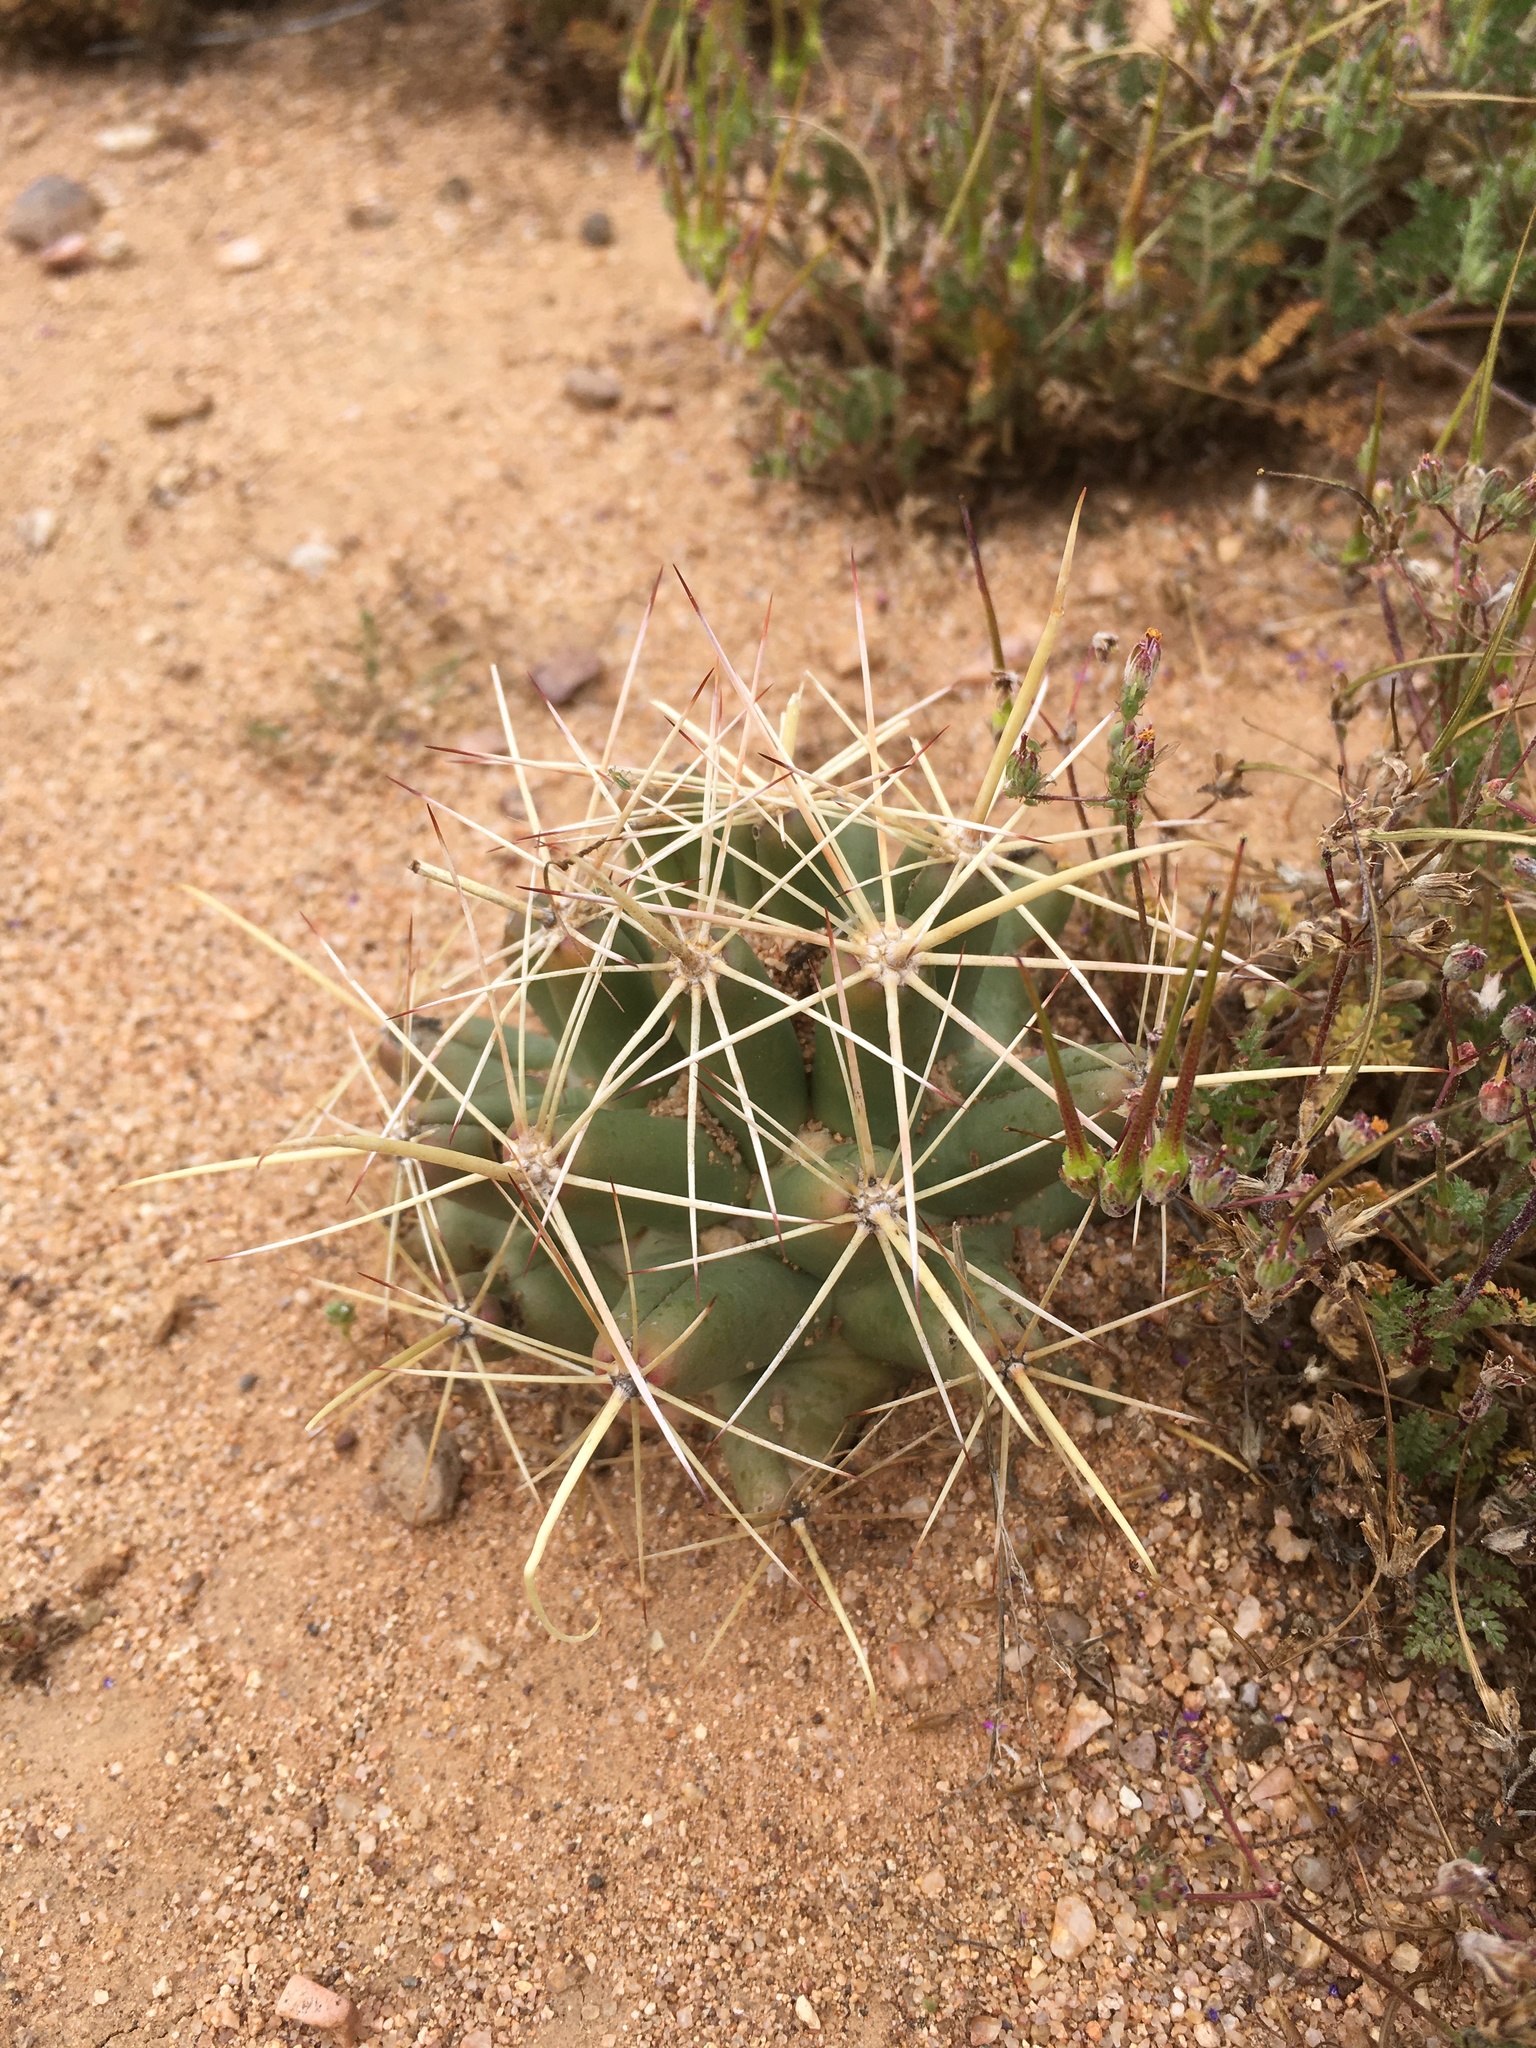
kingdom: Plantae
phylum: Tracheophyta
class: Magnoliopsida
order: Caryophyllales
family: Cactaceae
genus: Coryphantha
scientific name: Coryphantha robustispina
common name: Pima pineapple cactus
